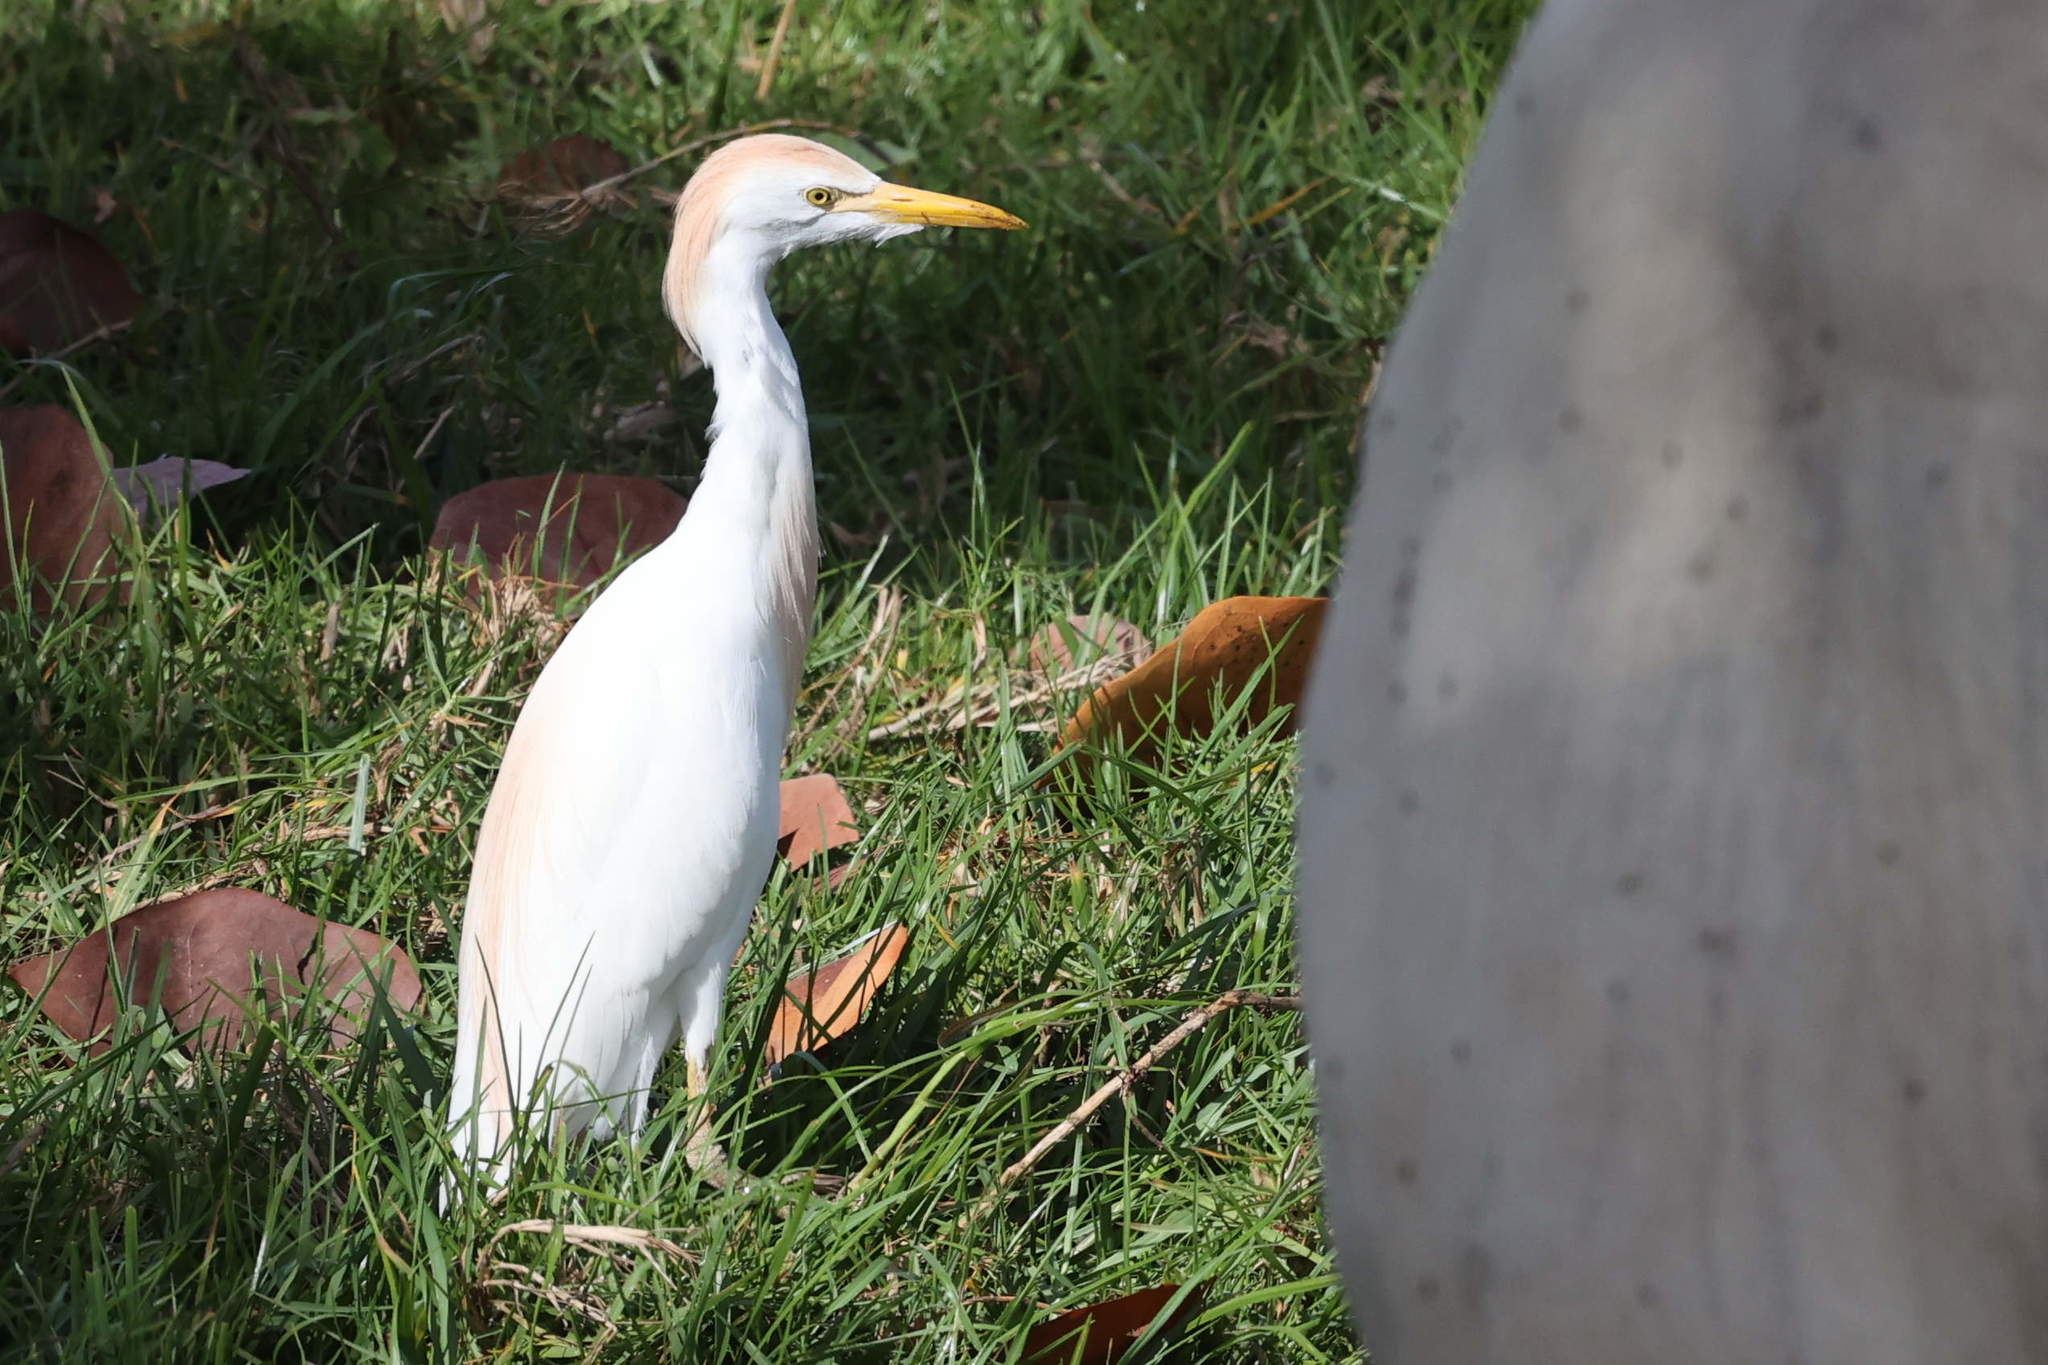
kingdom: Animalia
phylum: Chordata
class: Aves
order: Pelecaniformes
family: Ardeidae
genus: Bubulcus
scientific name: Bubulcus ibis
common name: Cattle egret
